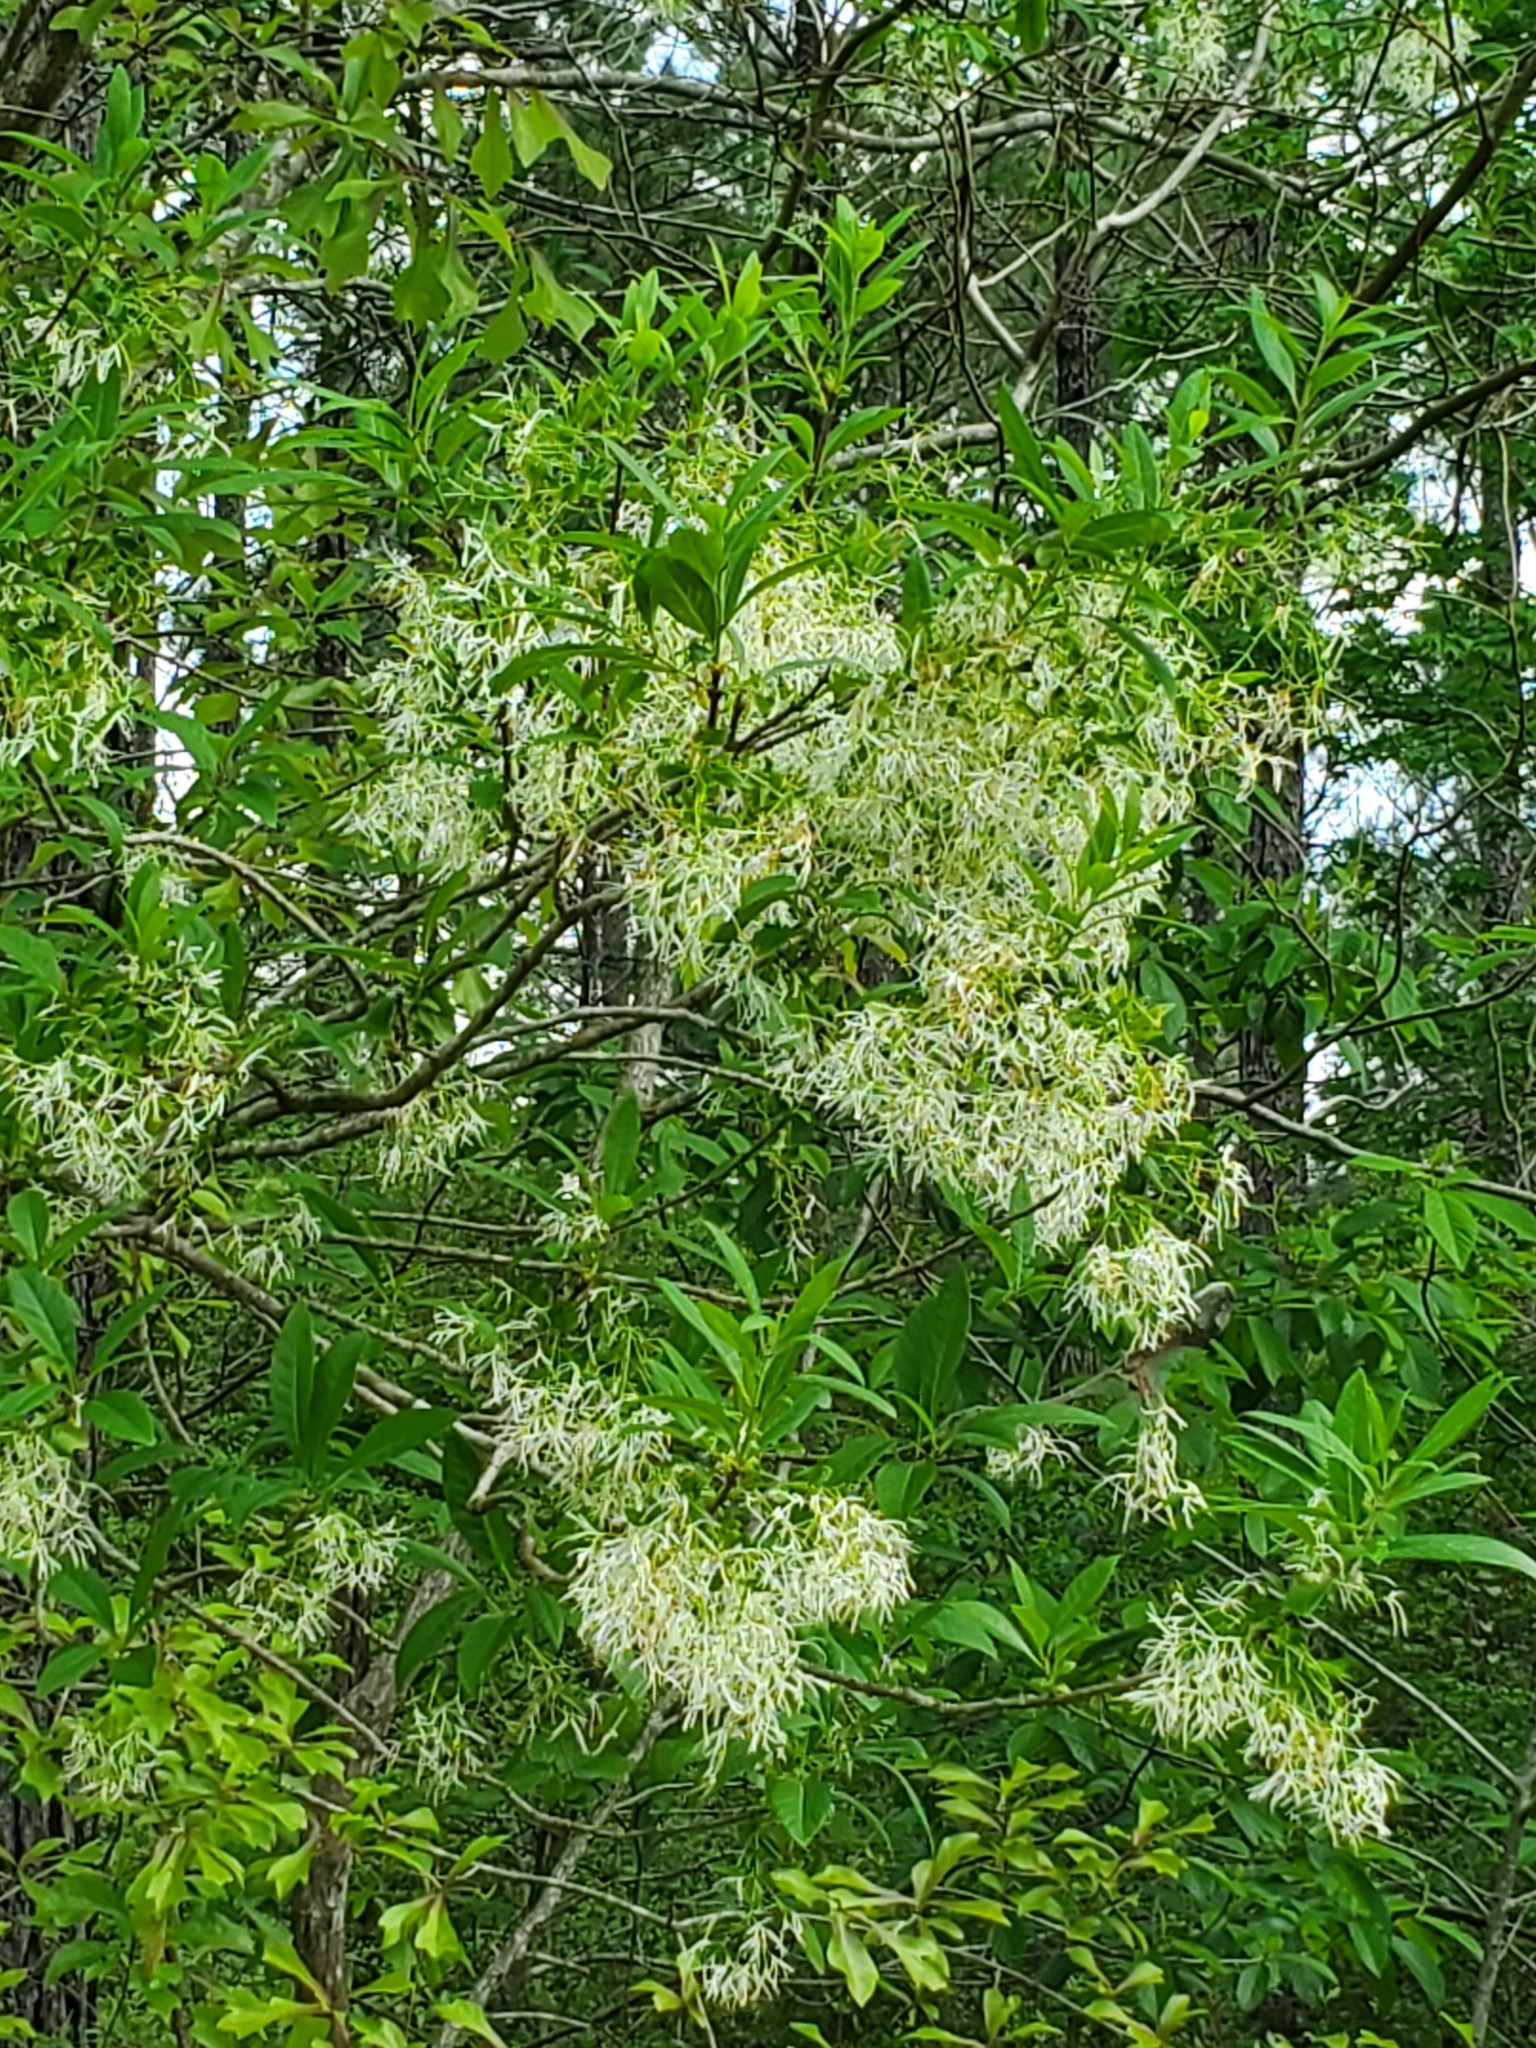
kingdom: Plantae
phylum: Tracheophyta
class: Magnoliopsida
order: Lamiales
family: Oleaceae
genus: Chionanthus
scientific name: Chionanthus virginicus
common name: American fringetree
